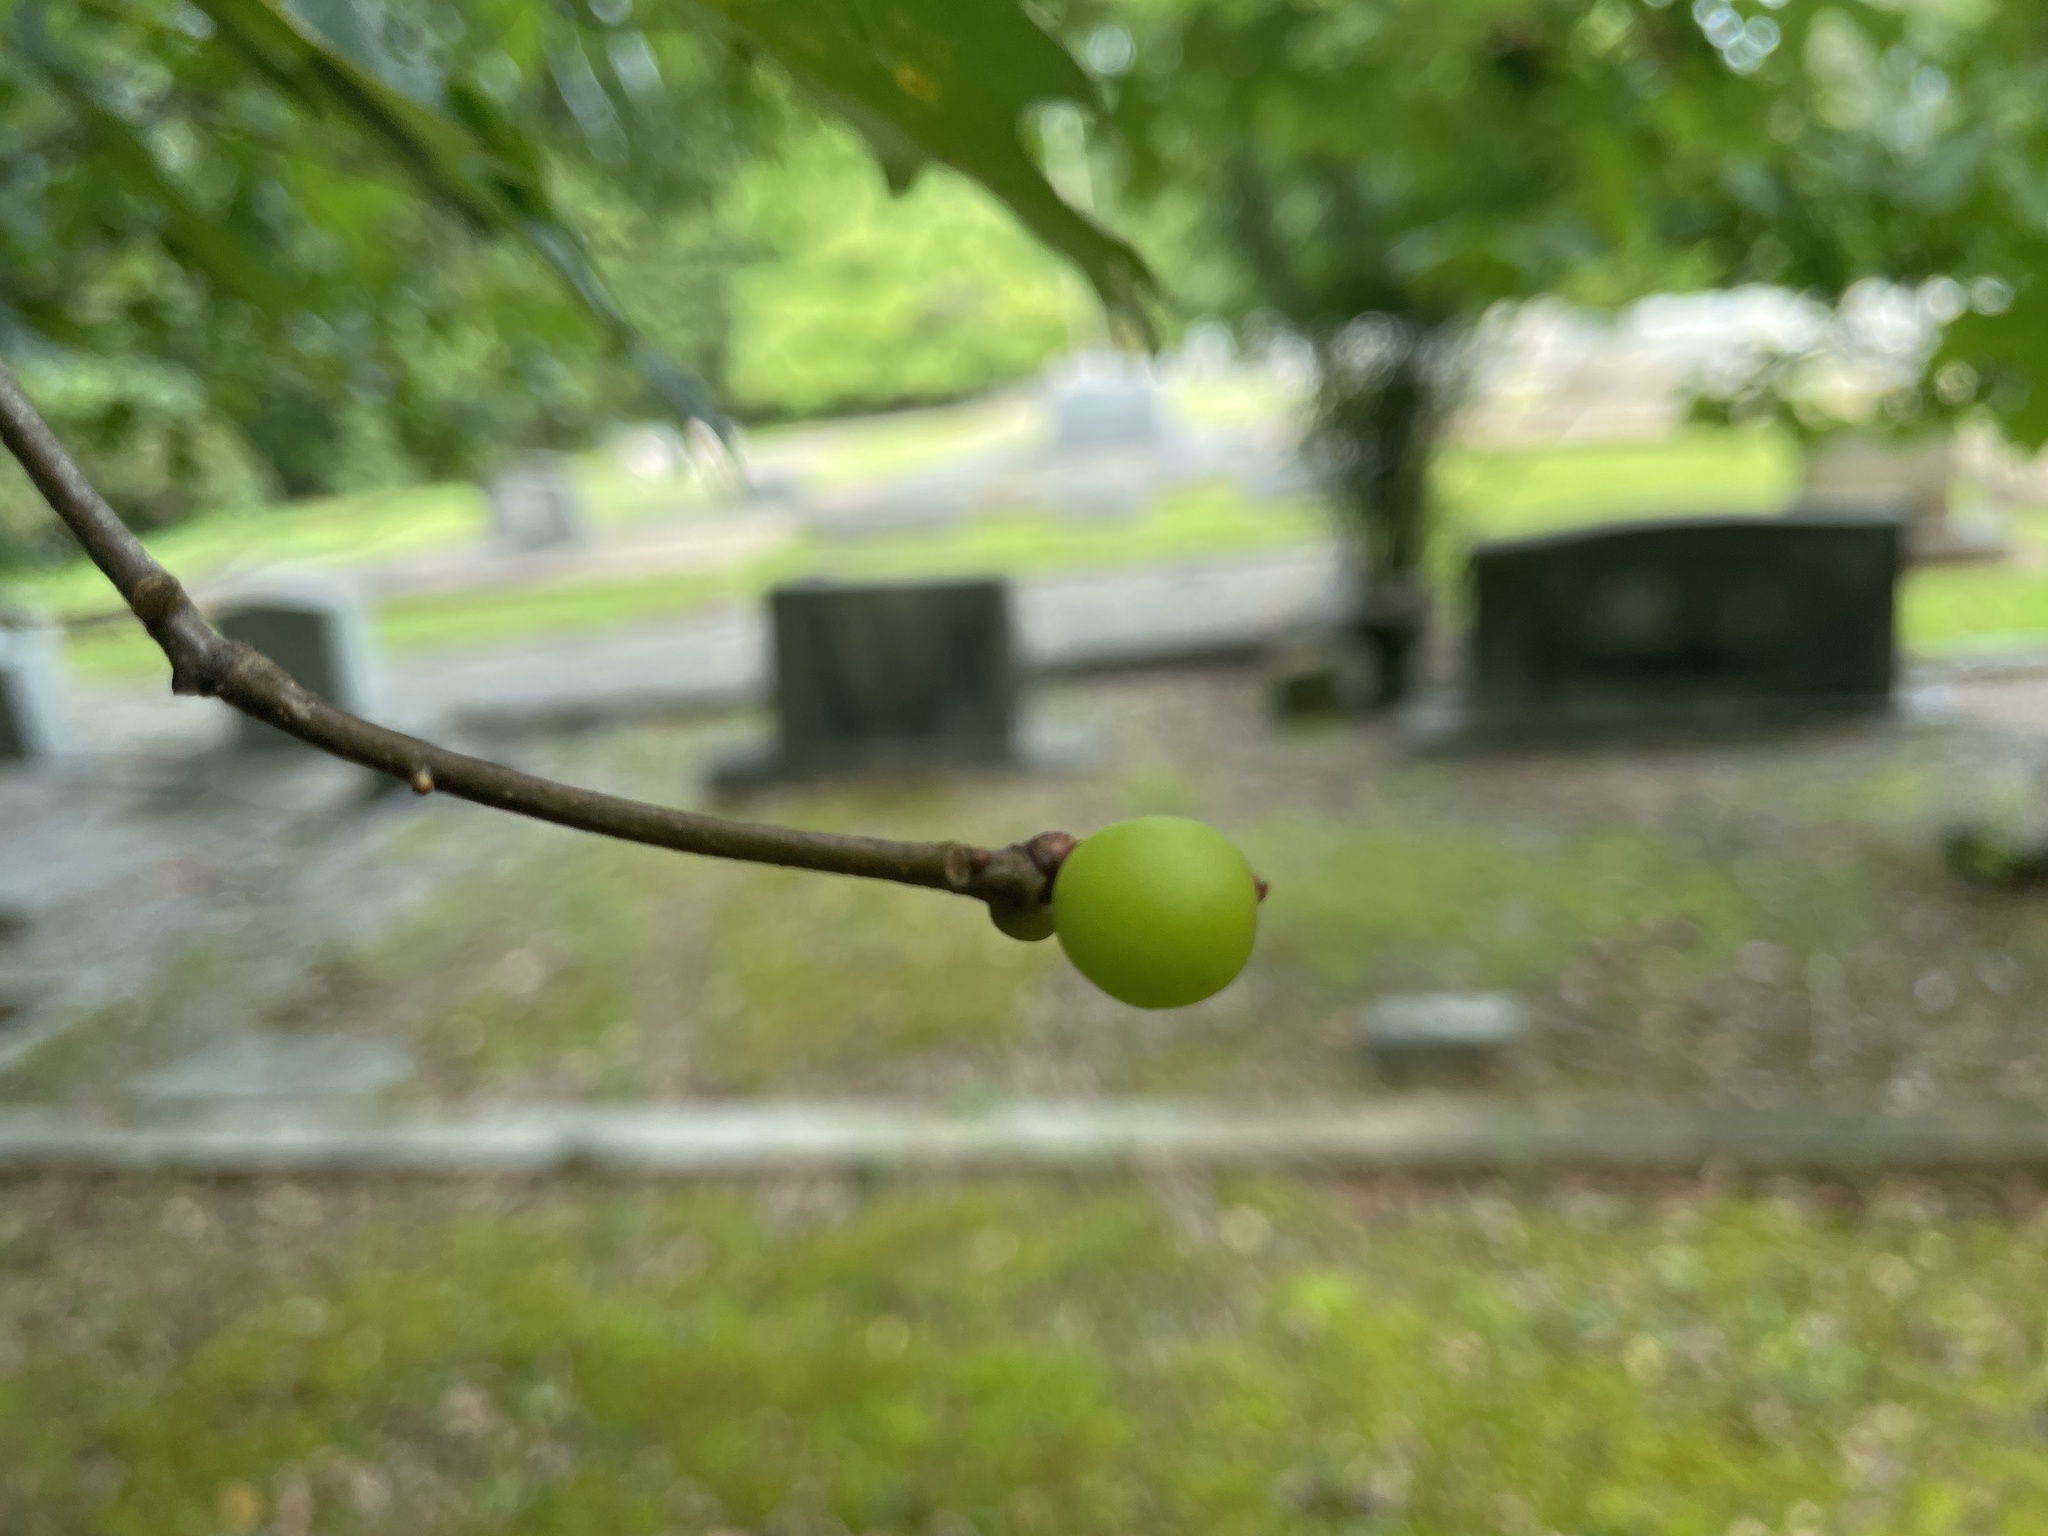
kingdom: Animalia
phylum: Arthropoda
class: Insecta
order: Hymenoptera
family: Cynipidae
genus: Amphibolips
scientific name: Amphibolips
